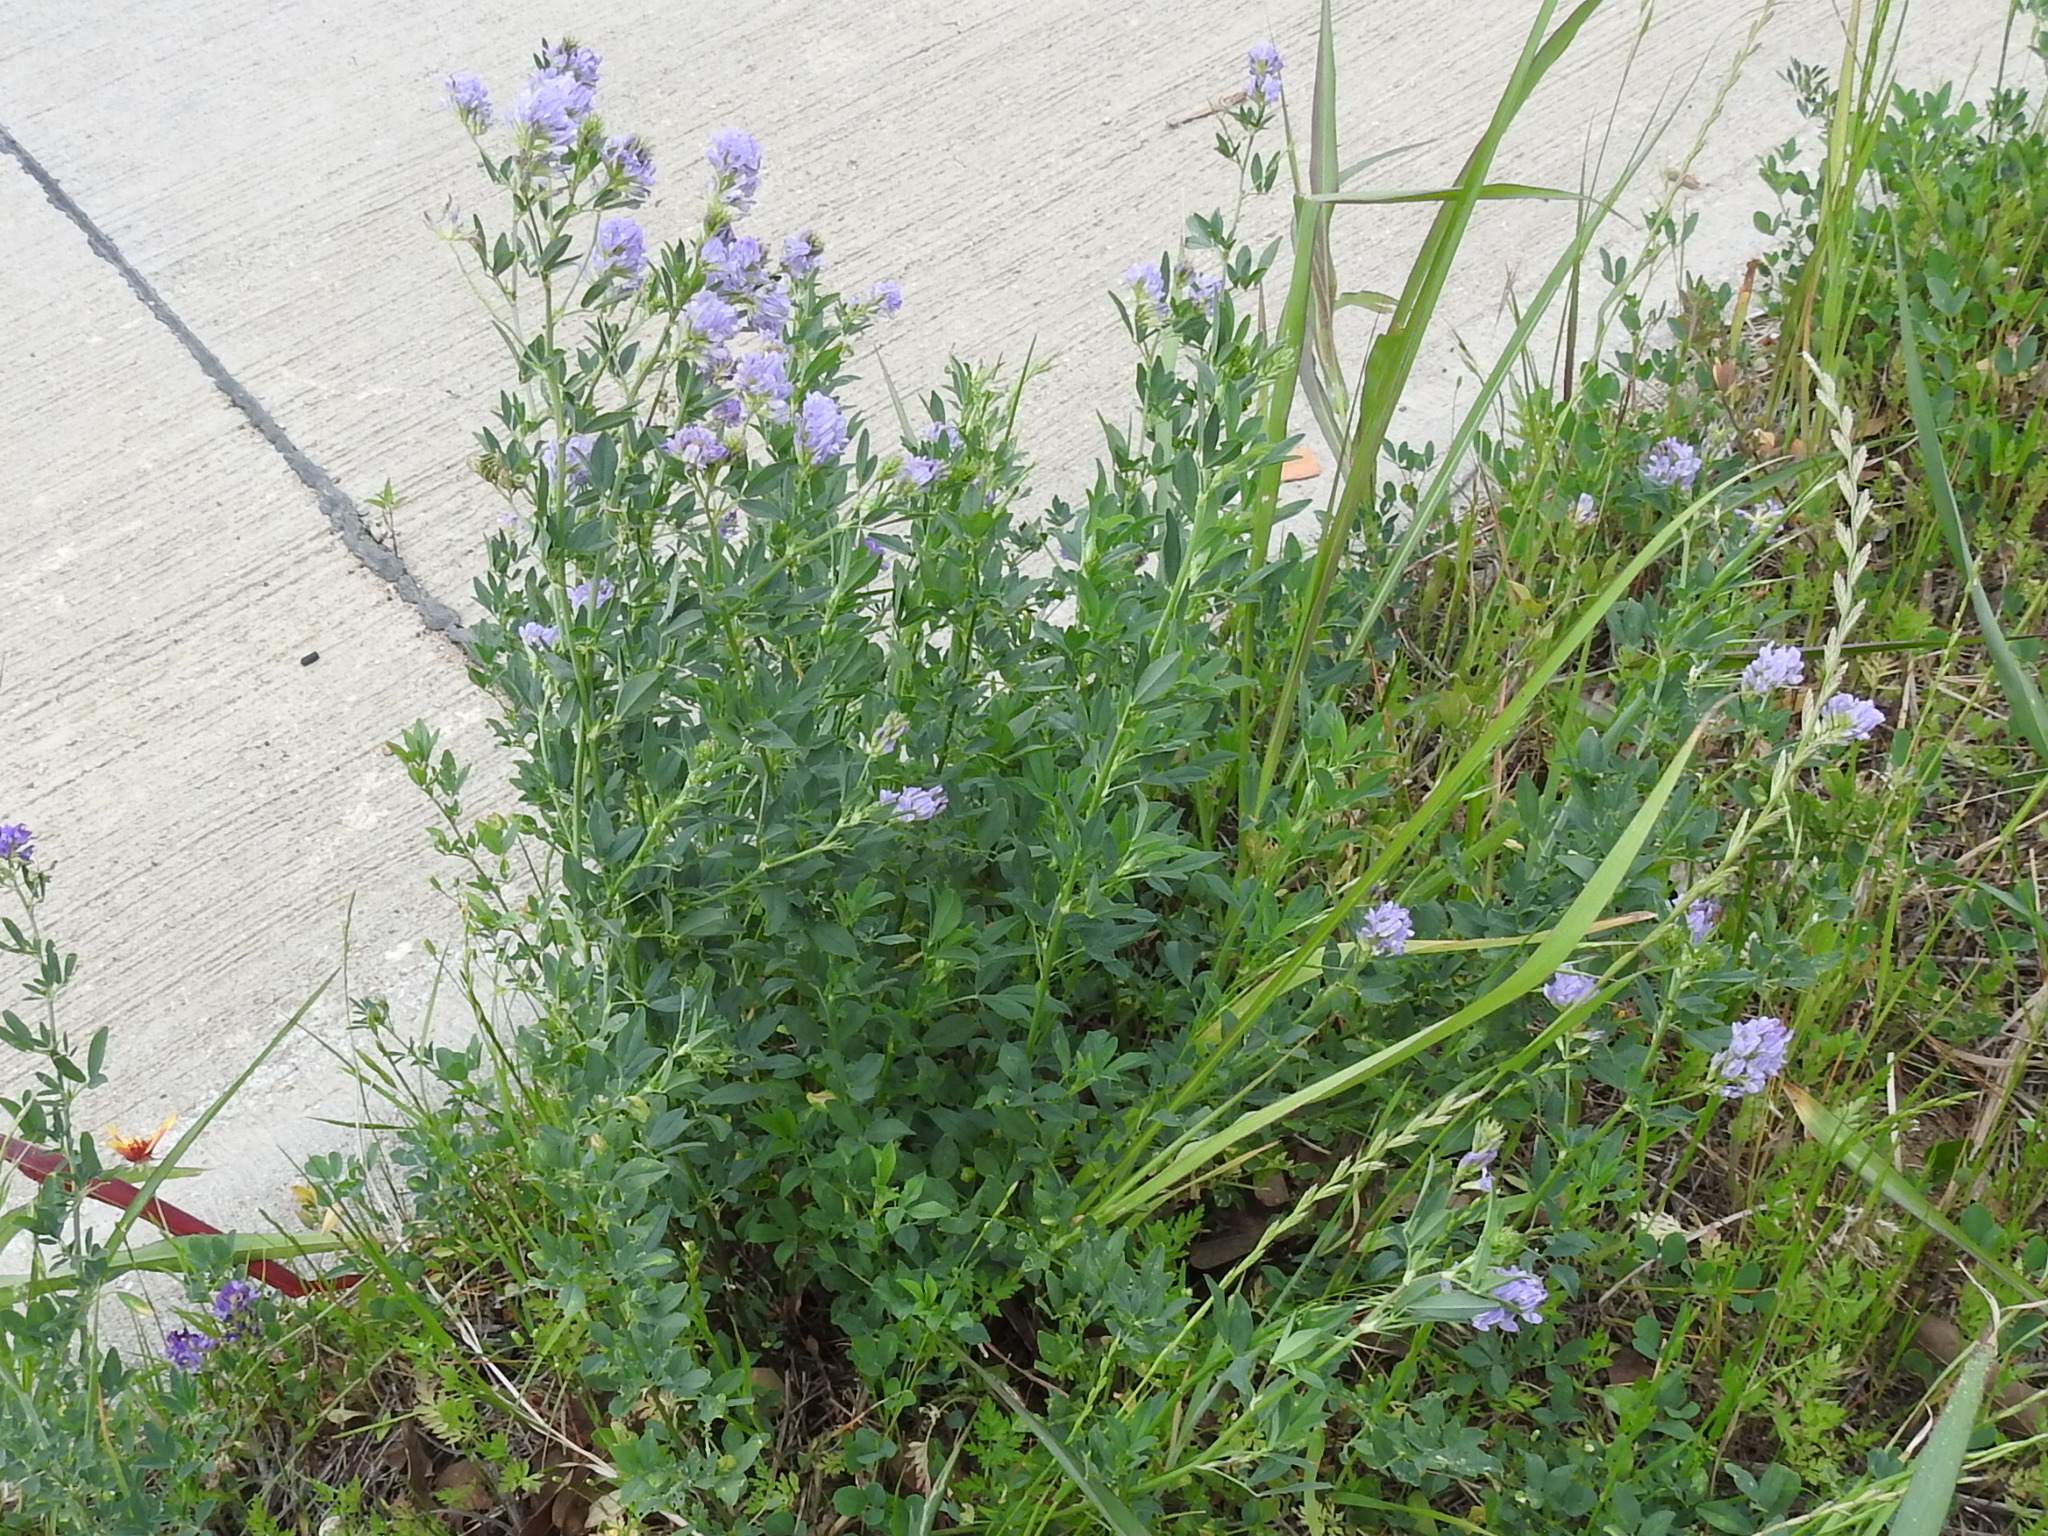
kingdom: Plantae
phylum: Tracheophyta
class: Magnoliopsida
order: Fabales
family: Fabaceae
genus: Medicago
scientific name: Medicago sativa
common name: Alfalfa
